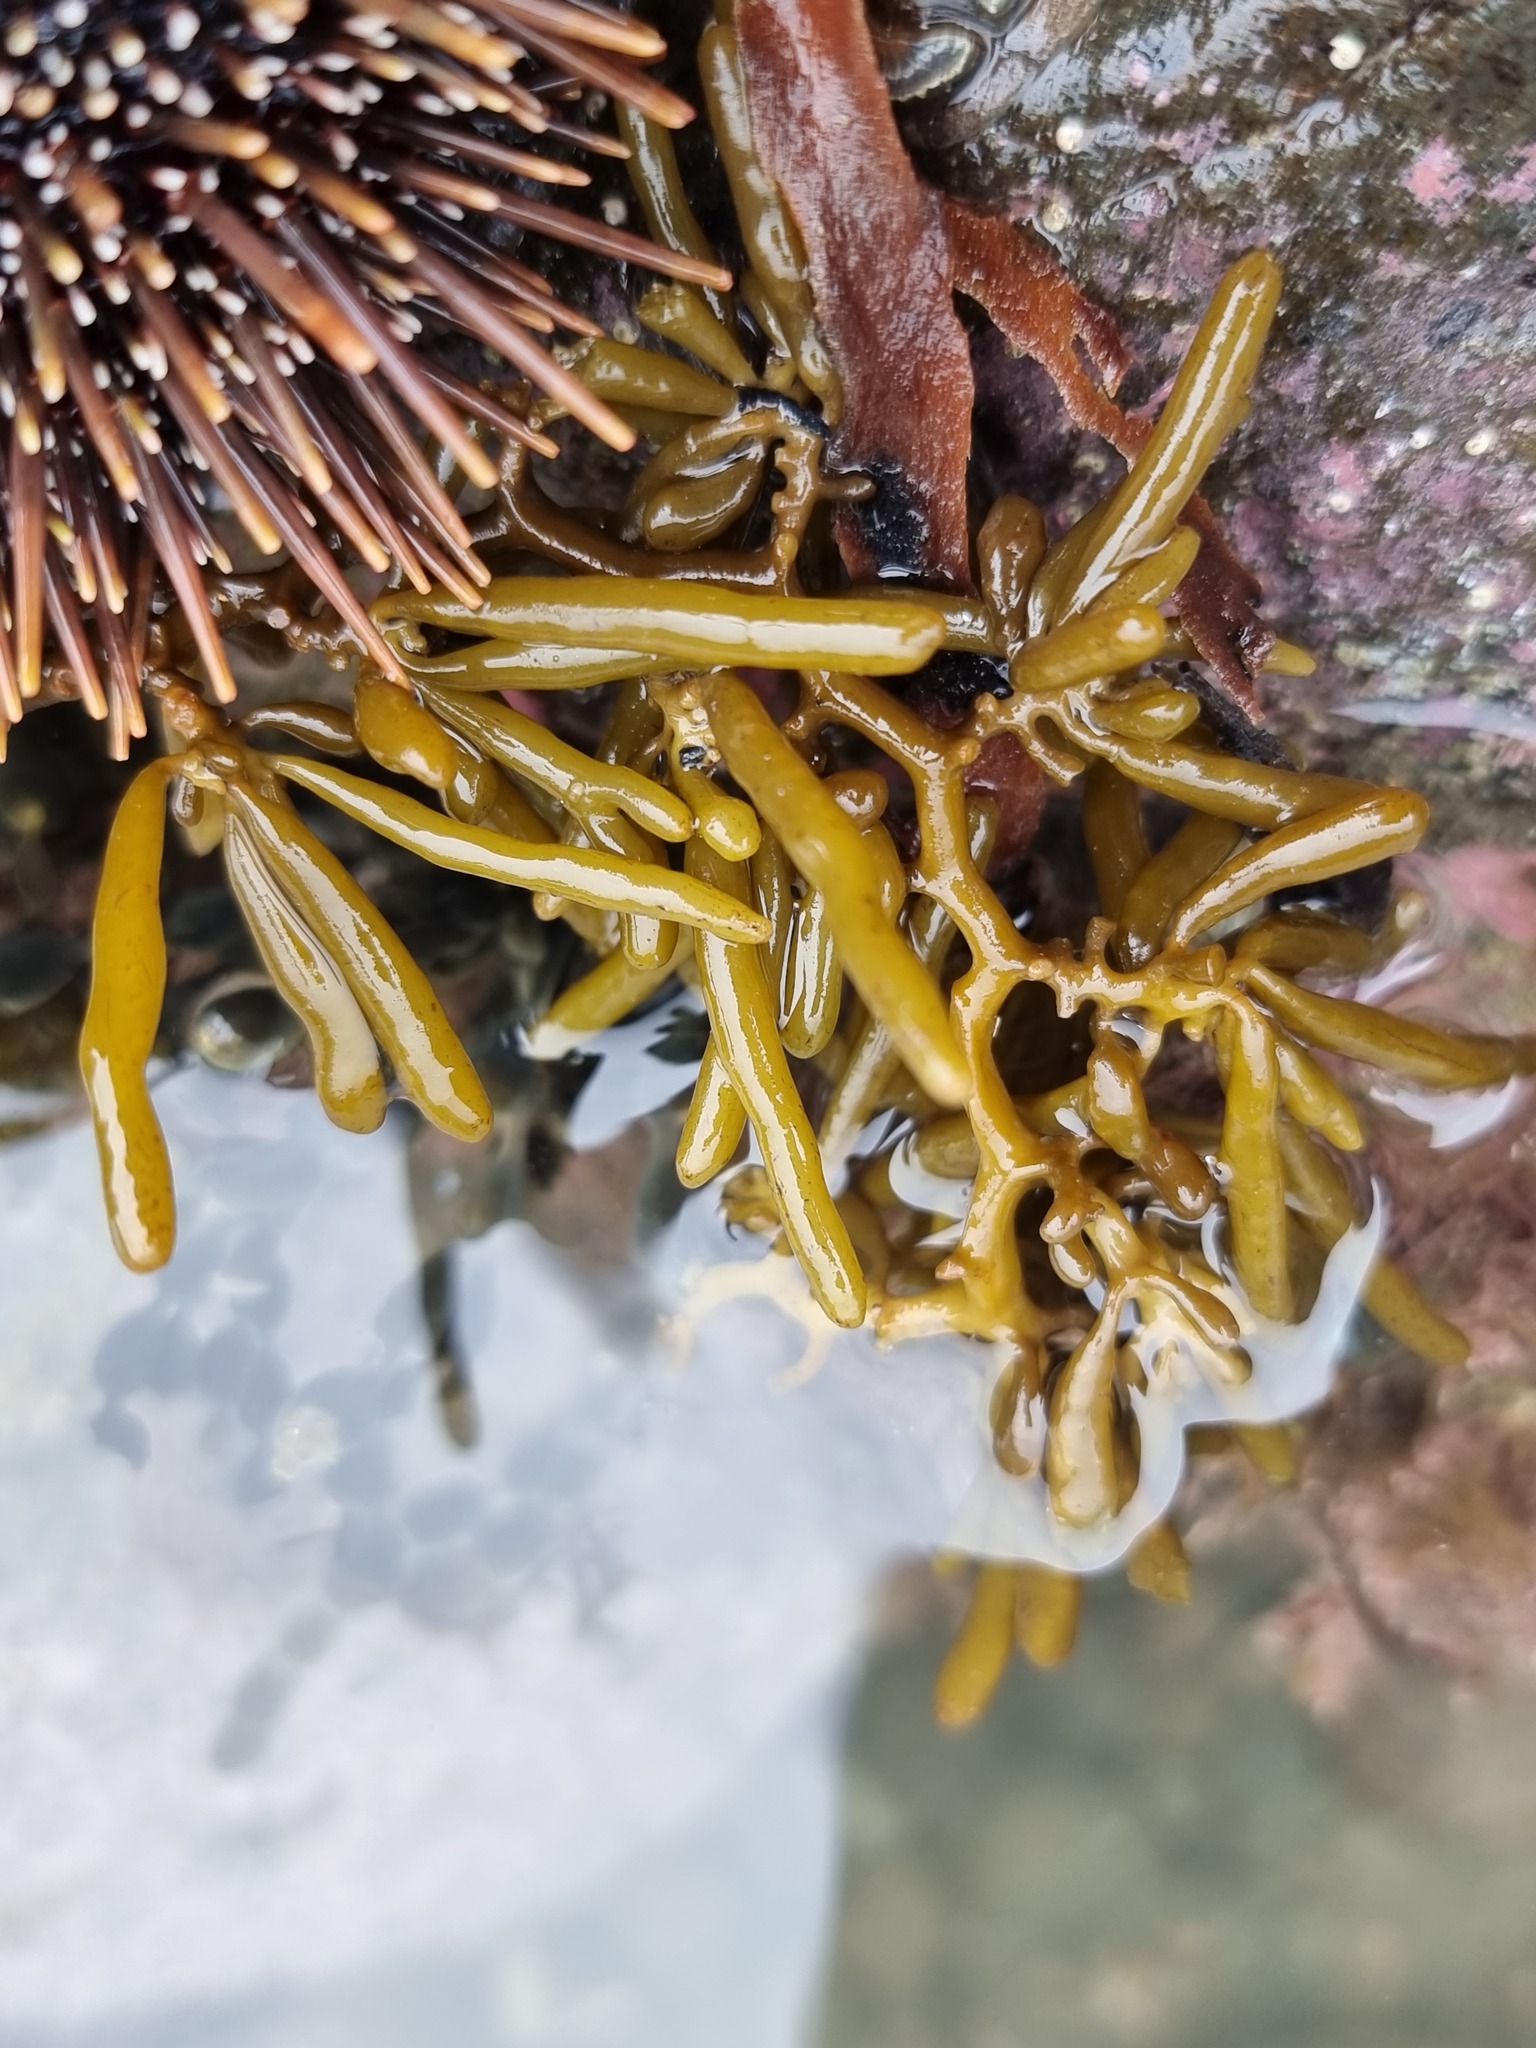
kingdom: Chromista
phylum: Ochrophyta
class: Phaeophyceae
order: Fucales
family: Sargassaceae
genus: Cystophora
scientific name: Cystophora torulosa
